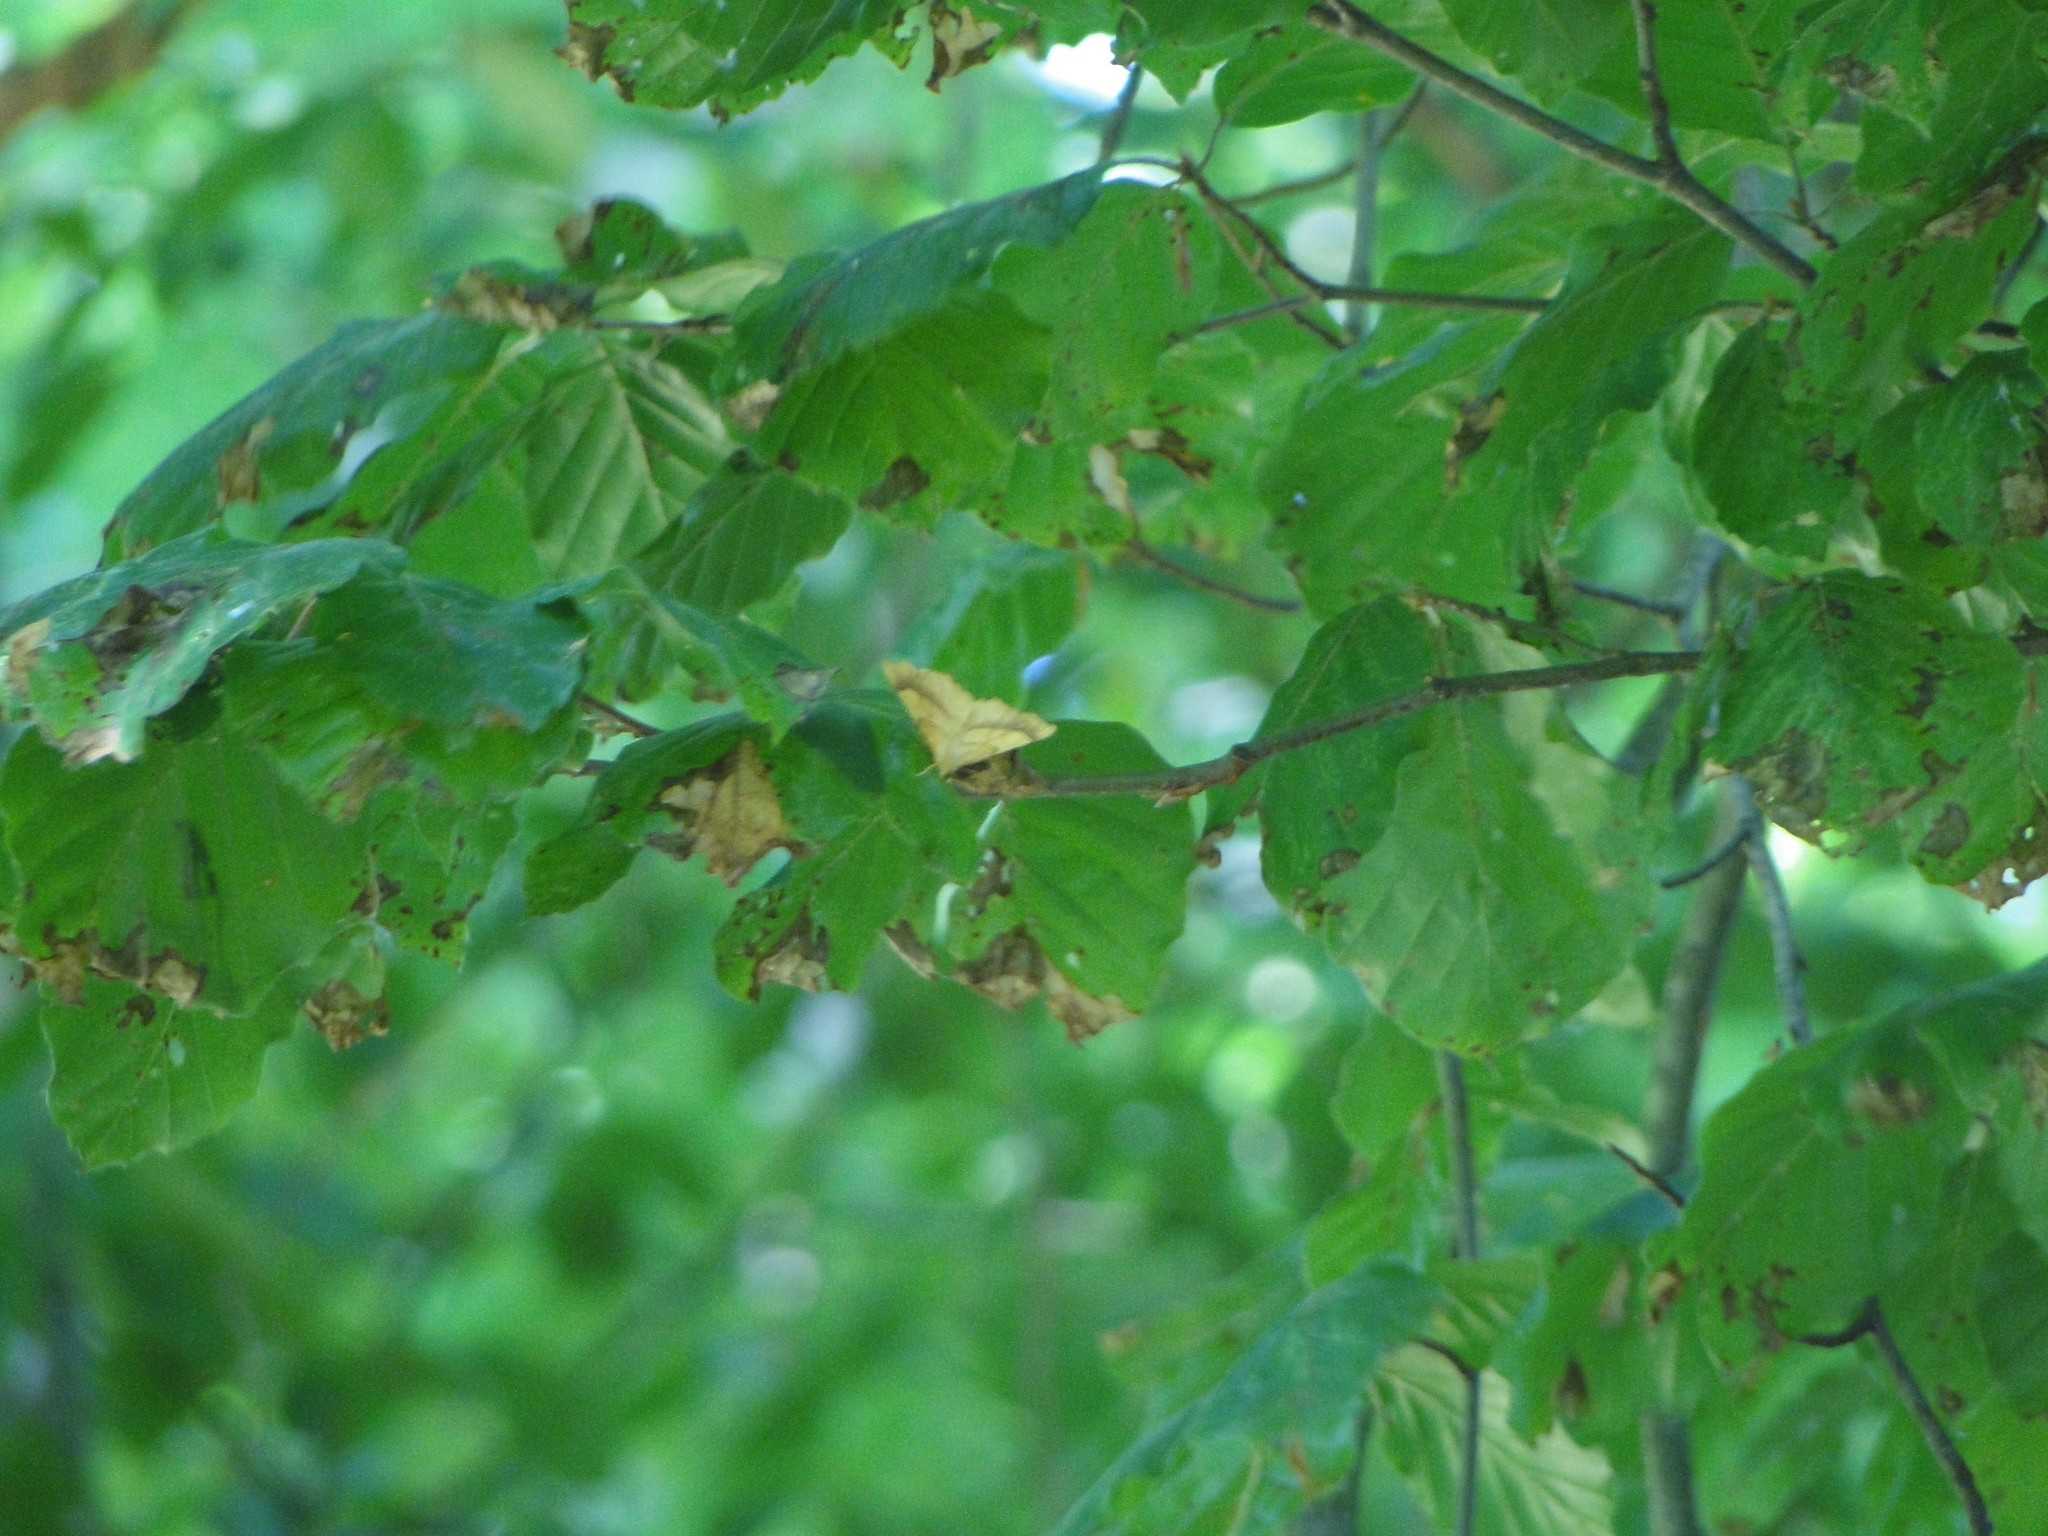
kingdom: Animalia
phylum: Arthropoda
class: Insecta
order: Lepidoptera
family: Geometridae
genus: Ennomos
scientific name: Ennomos quercinaria
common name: August thorn
